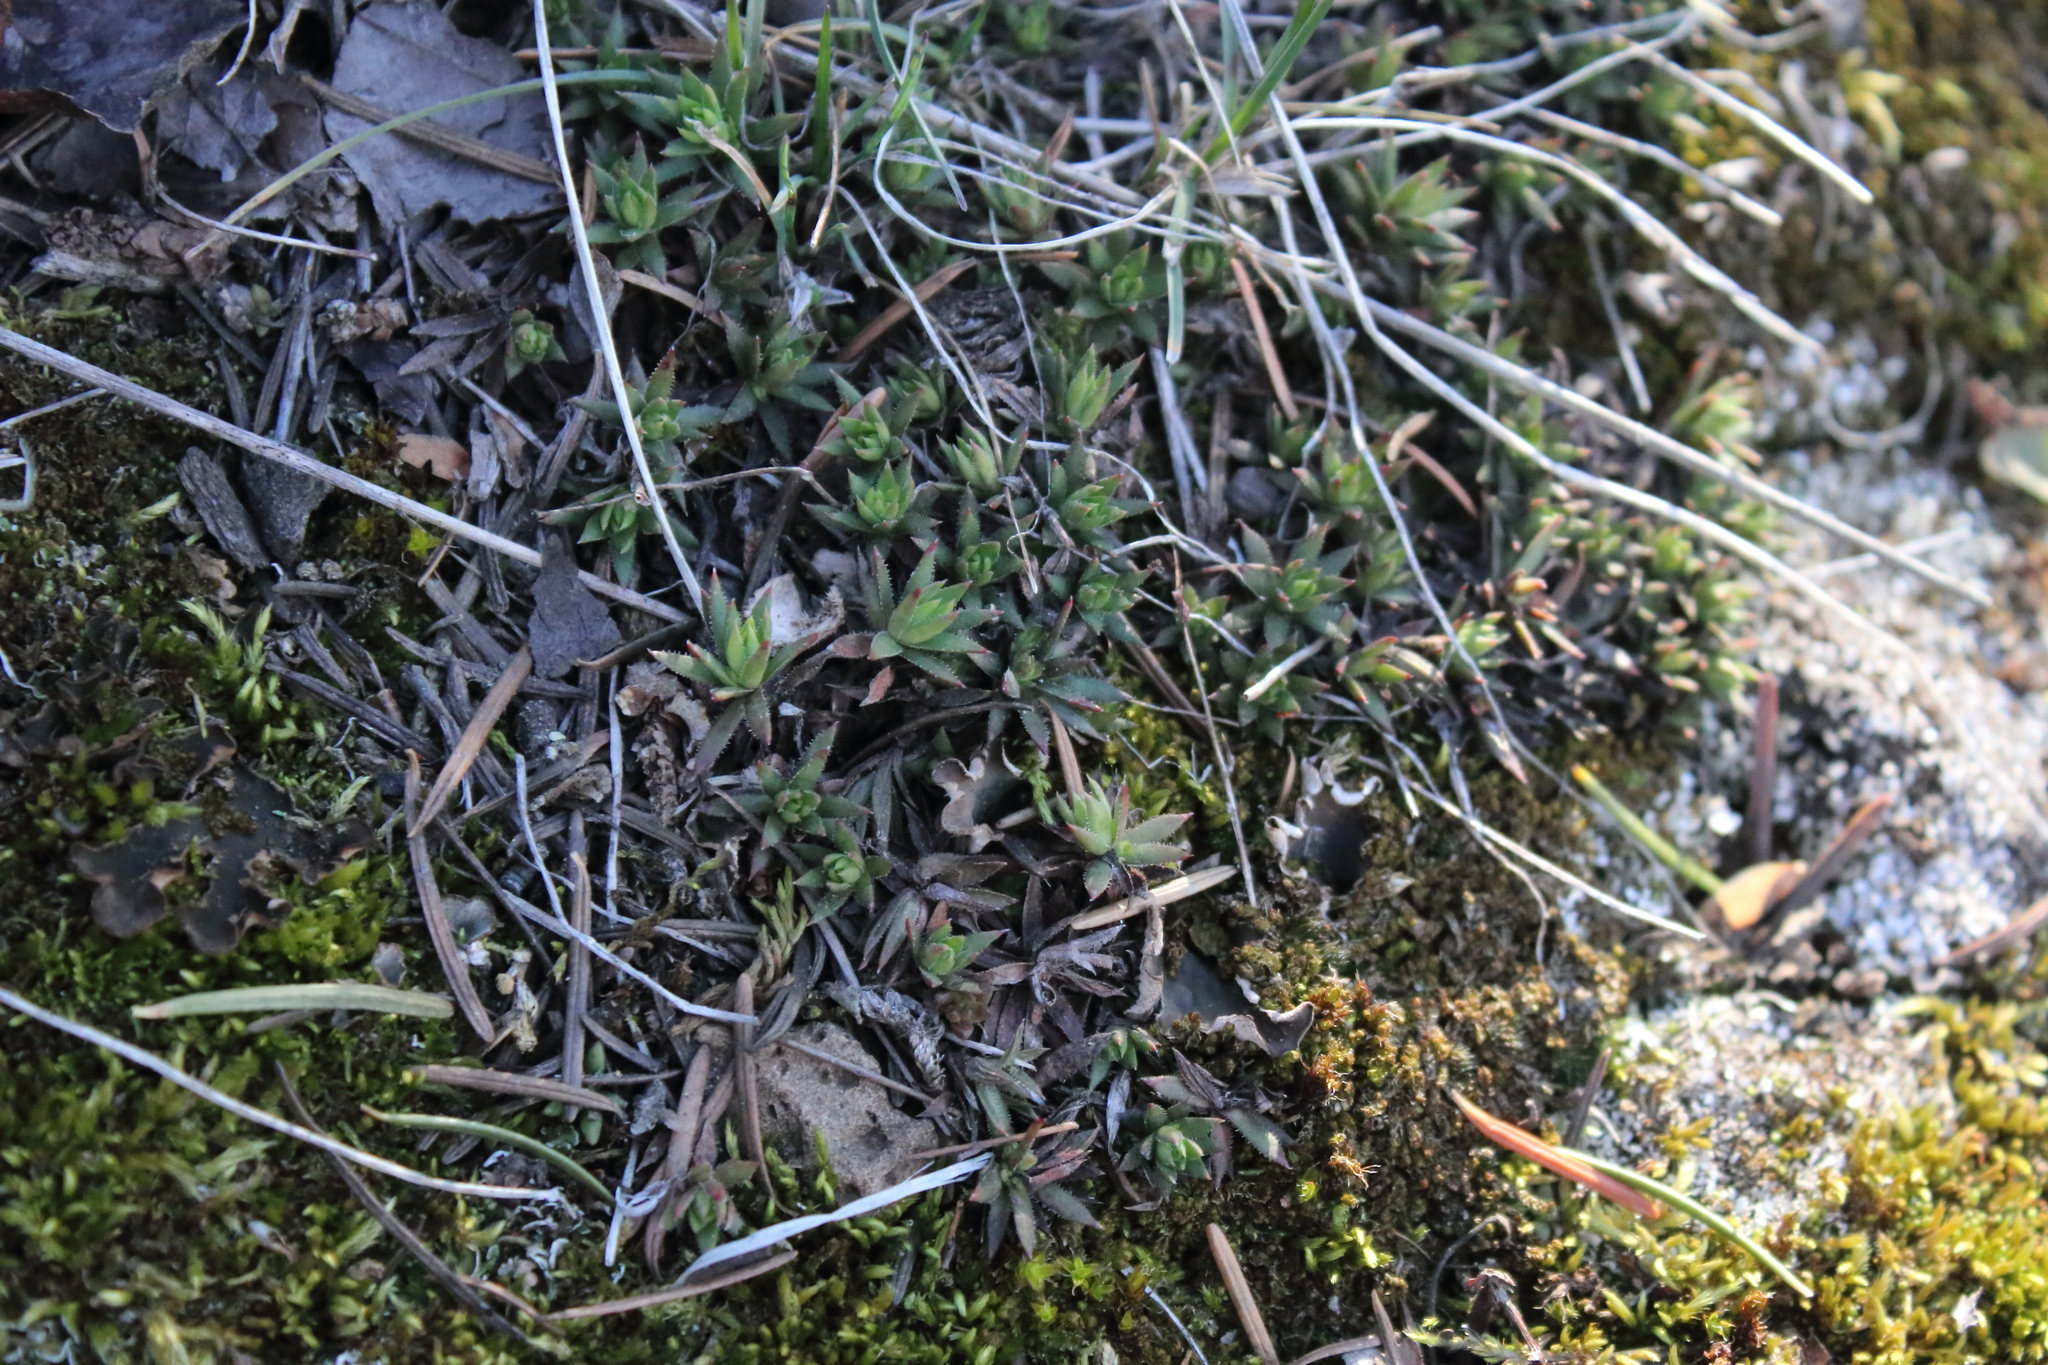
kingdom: Plantae
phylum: Tracheophyta
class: Magnoliopsida
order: Saxifragales
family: Saxifragaceae
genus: Saxifraga
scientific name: Saxifraga bronchialis
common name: Matted saxifrage
